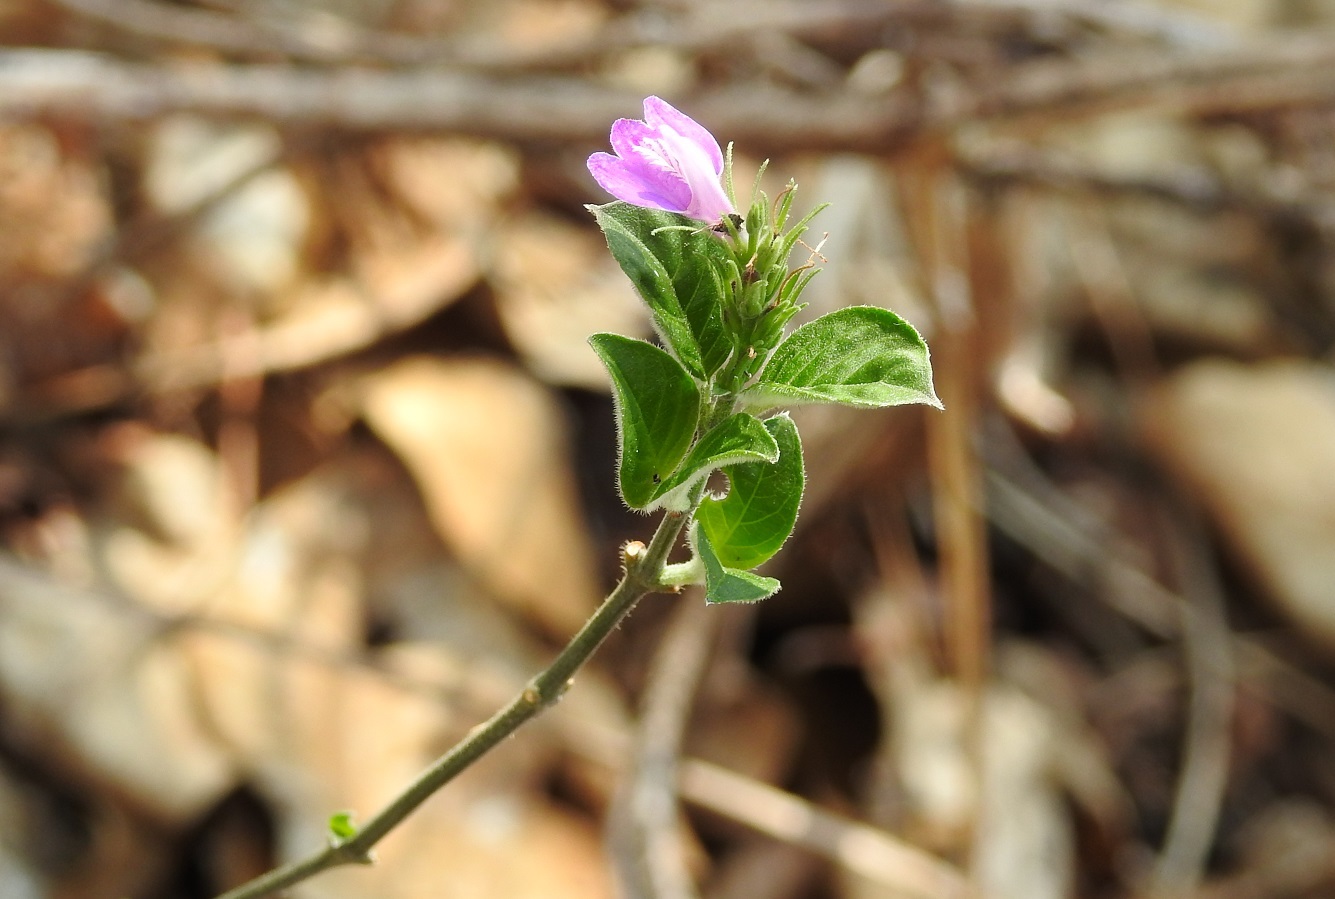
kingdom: Plantae
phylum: Tracheophyta
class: Magnoliopsida
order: Lamiales
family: Acanthaceae
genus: Dianthera
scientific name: Dianthera breviflora
